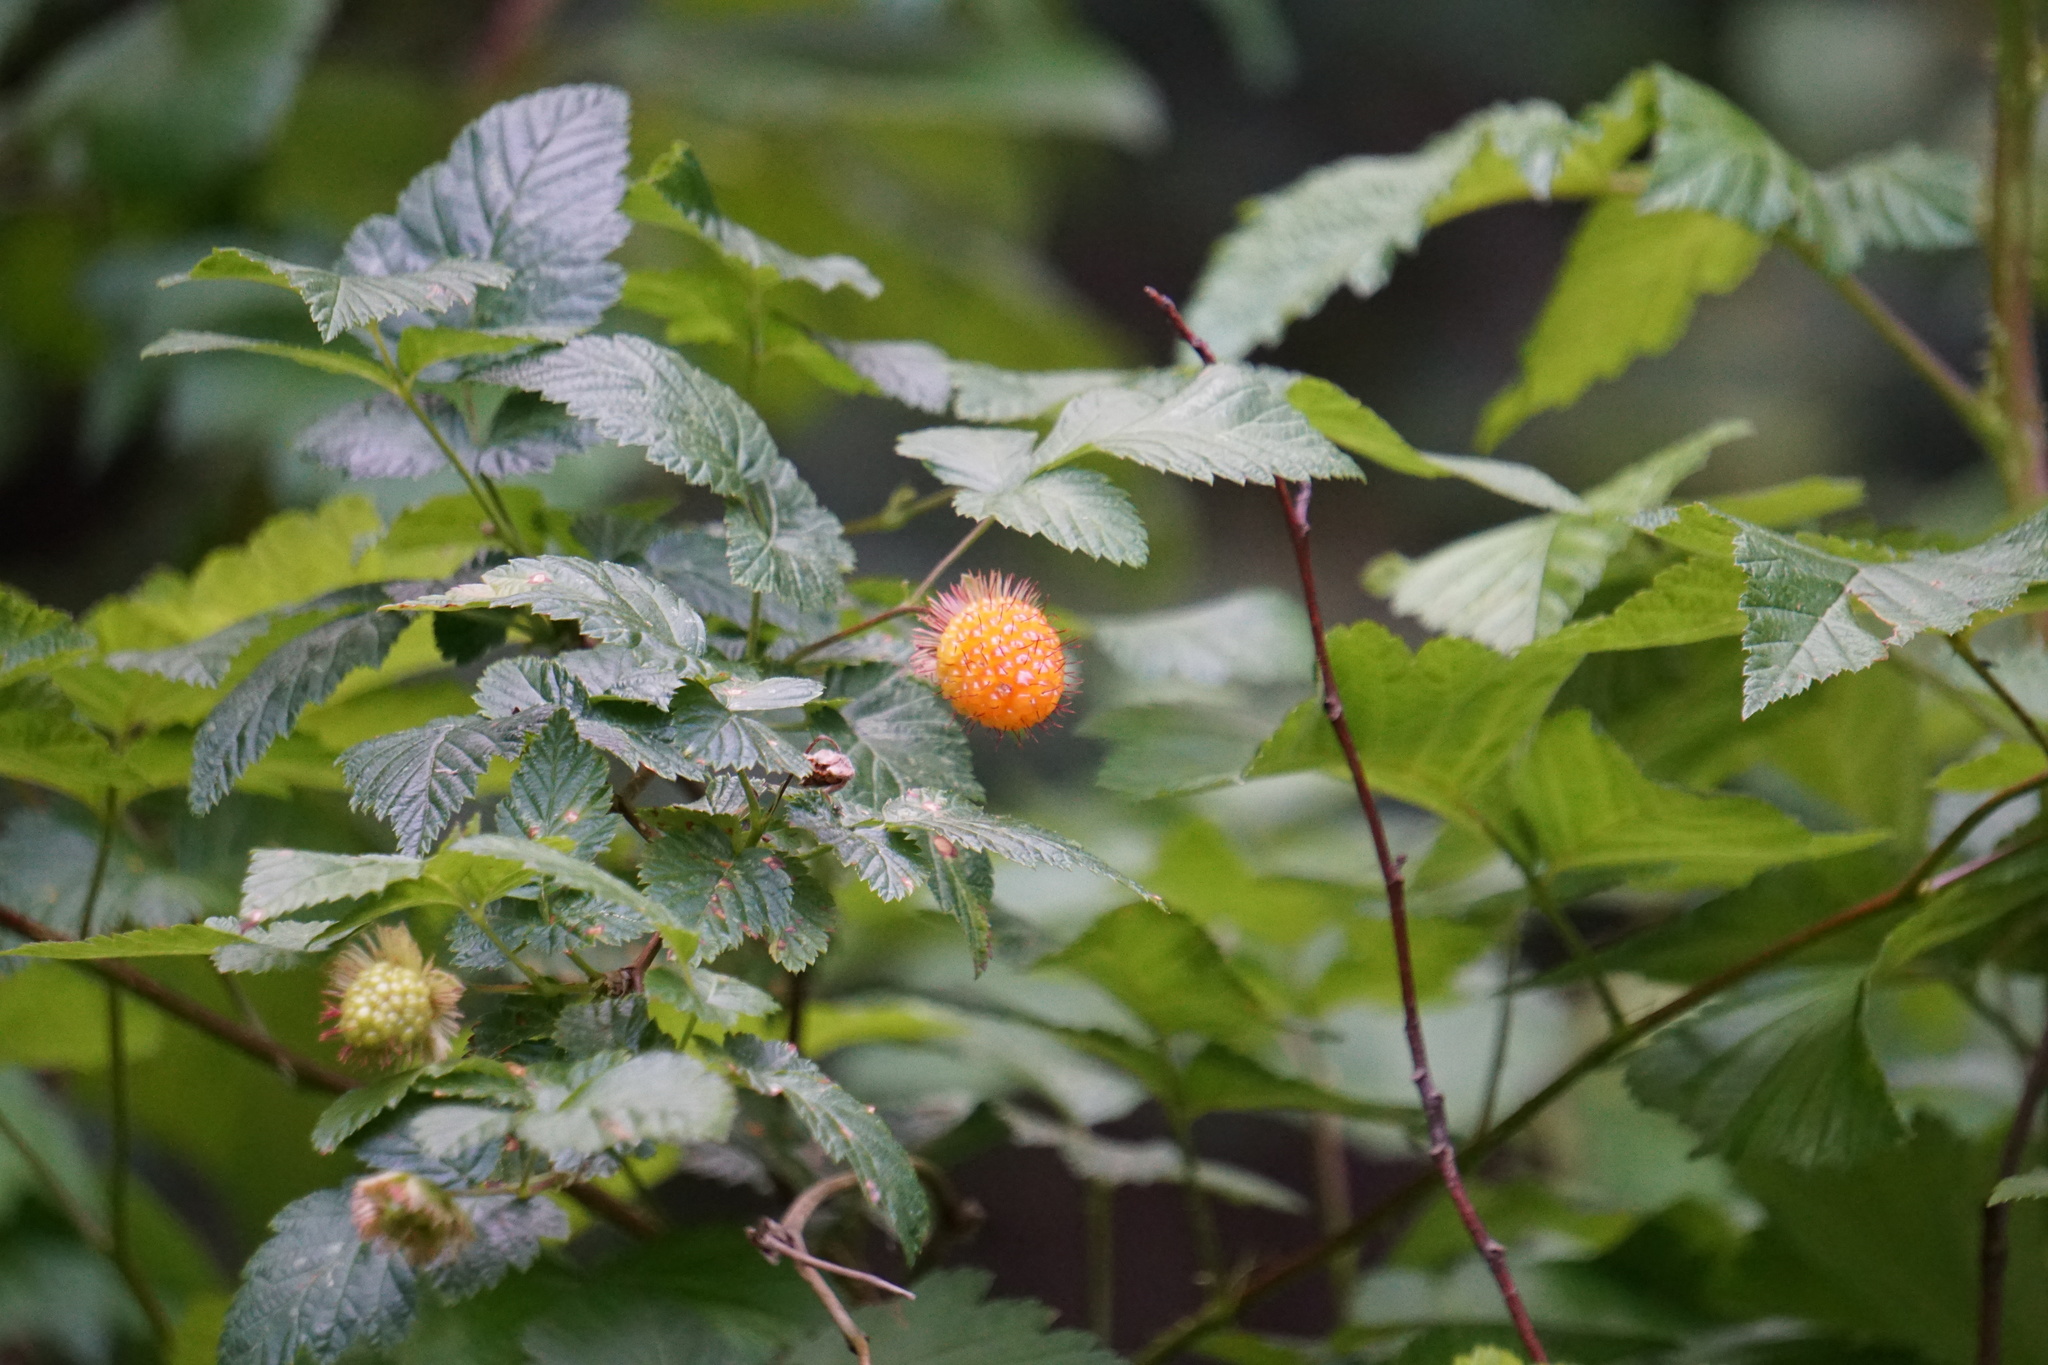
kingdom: Plantae
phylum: Tracheophyta
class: Magnoliopsida
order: Rosales
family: Rosaceae
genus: Rubus
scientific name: Rubus spectabilis
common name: Salmonberry
